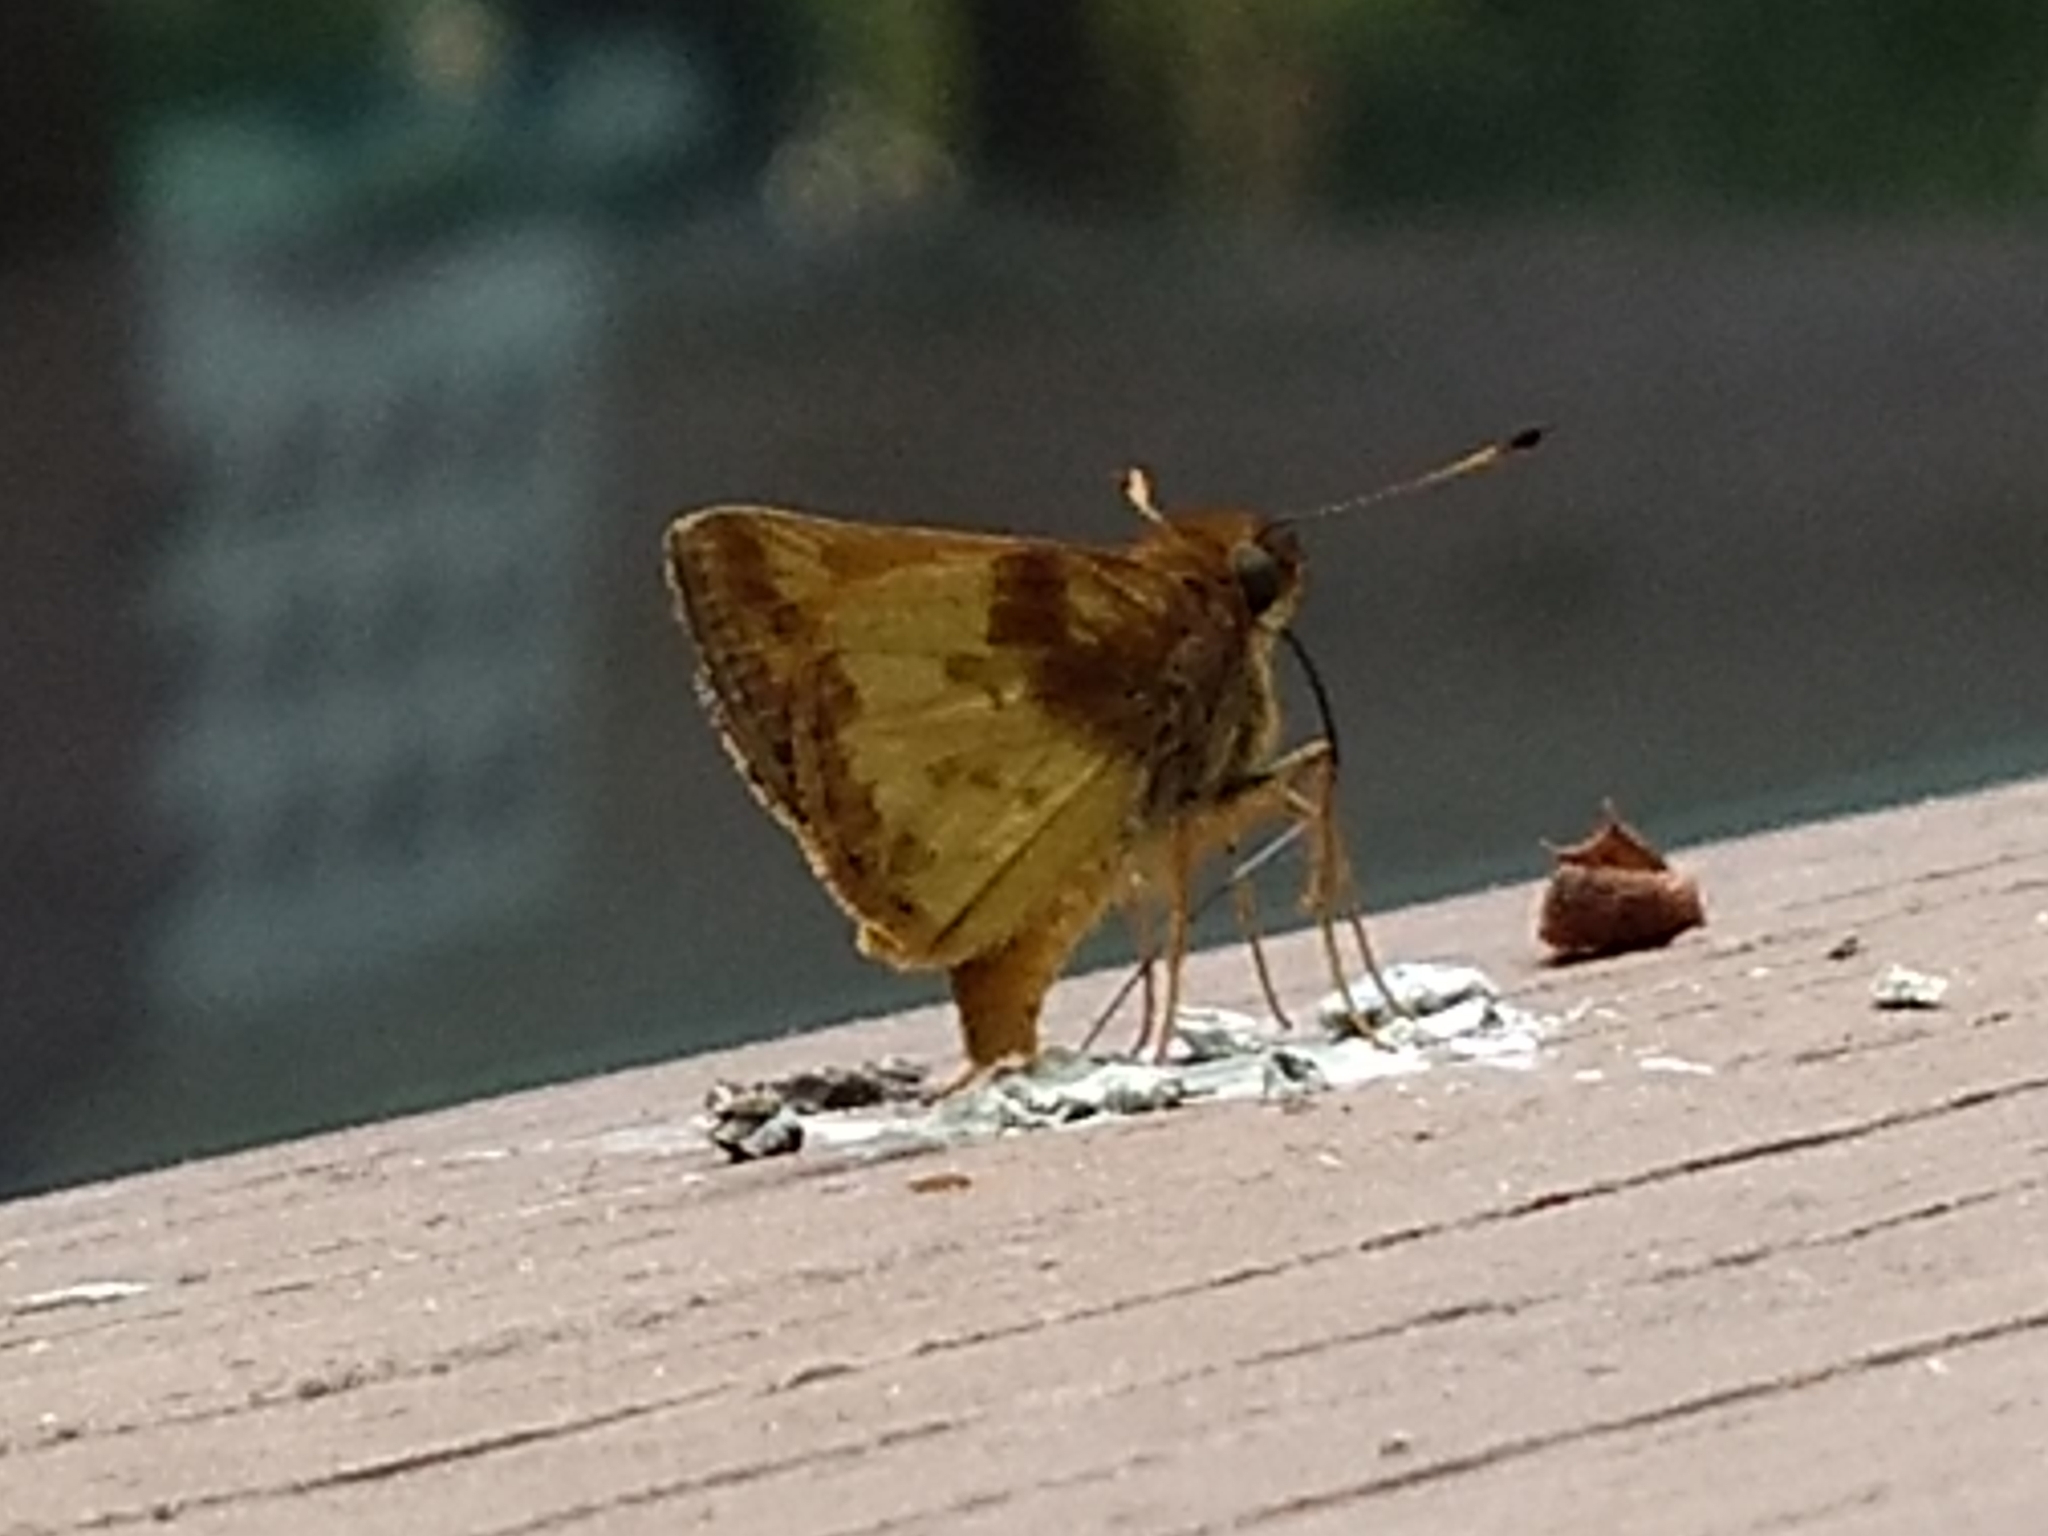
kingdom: Animalia
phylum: Arthropoda
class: Insecta
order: Lepidoptera
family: Hesperiidae
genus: Lon
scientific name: Lon zabulon
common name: Zabulon skipper
